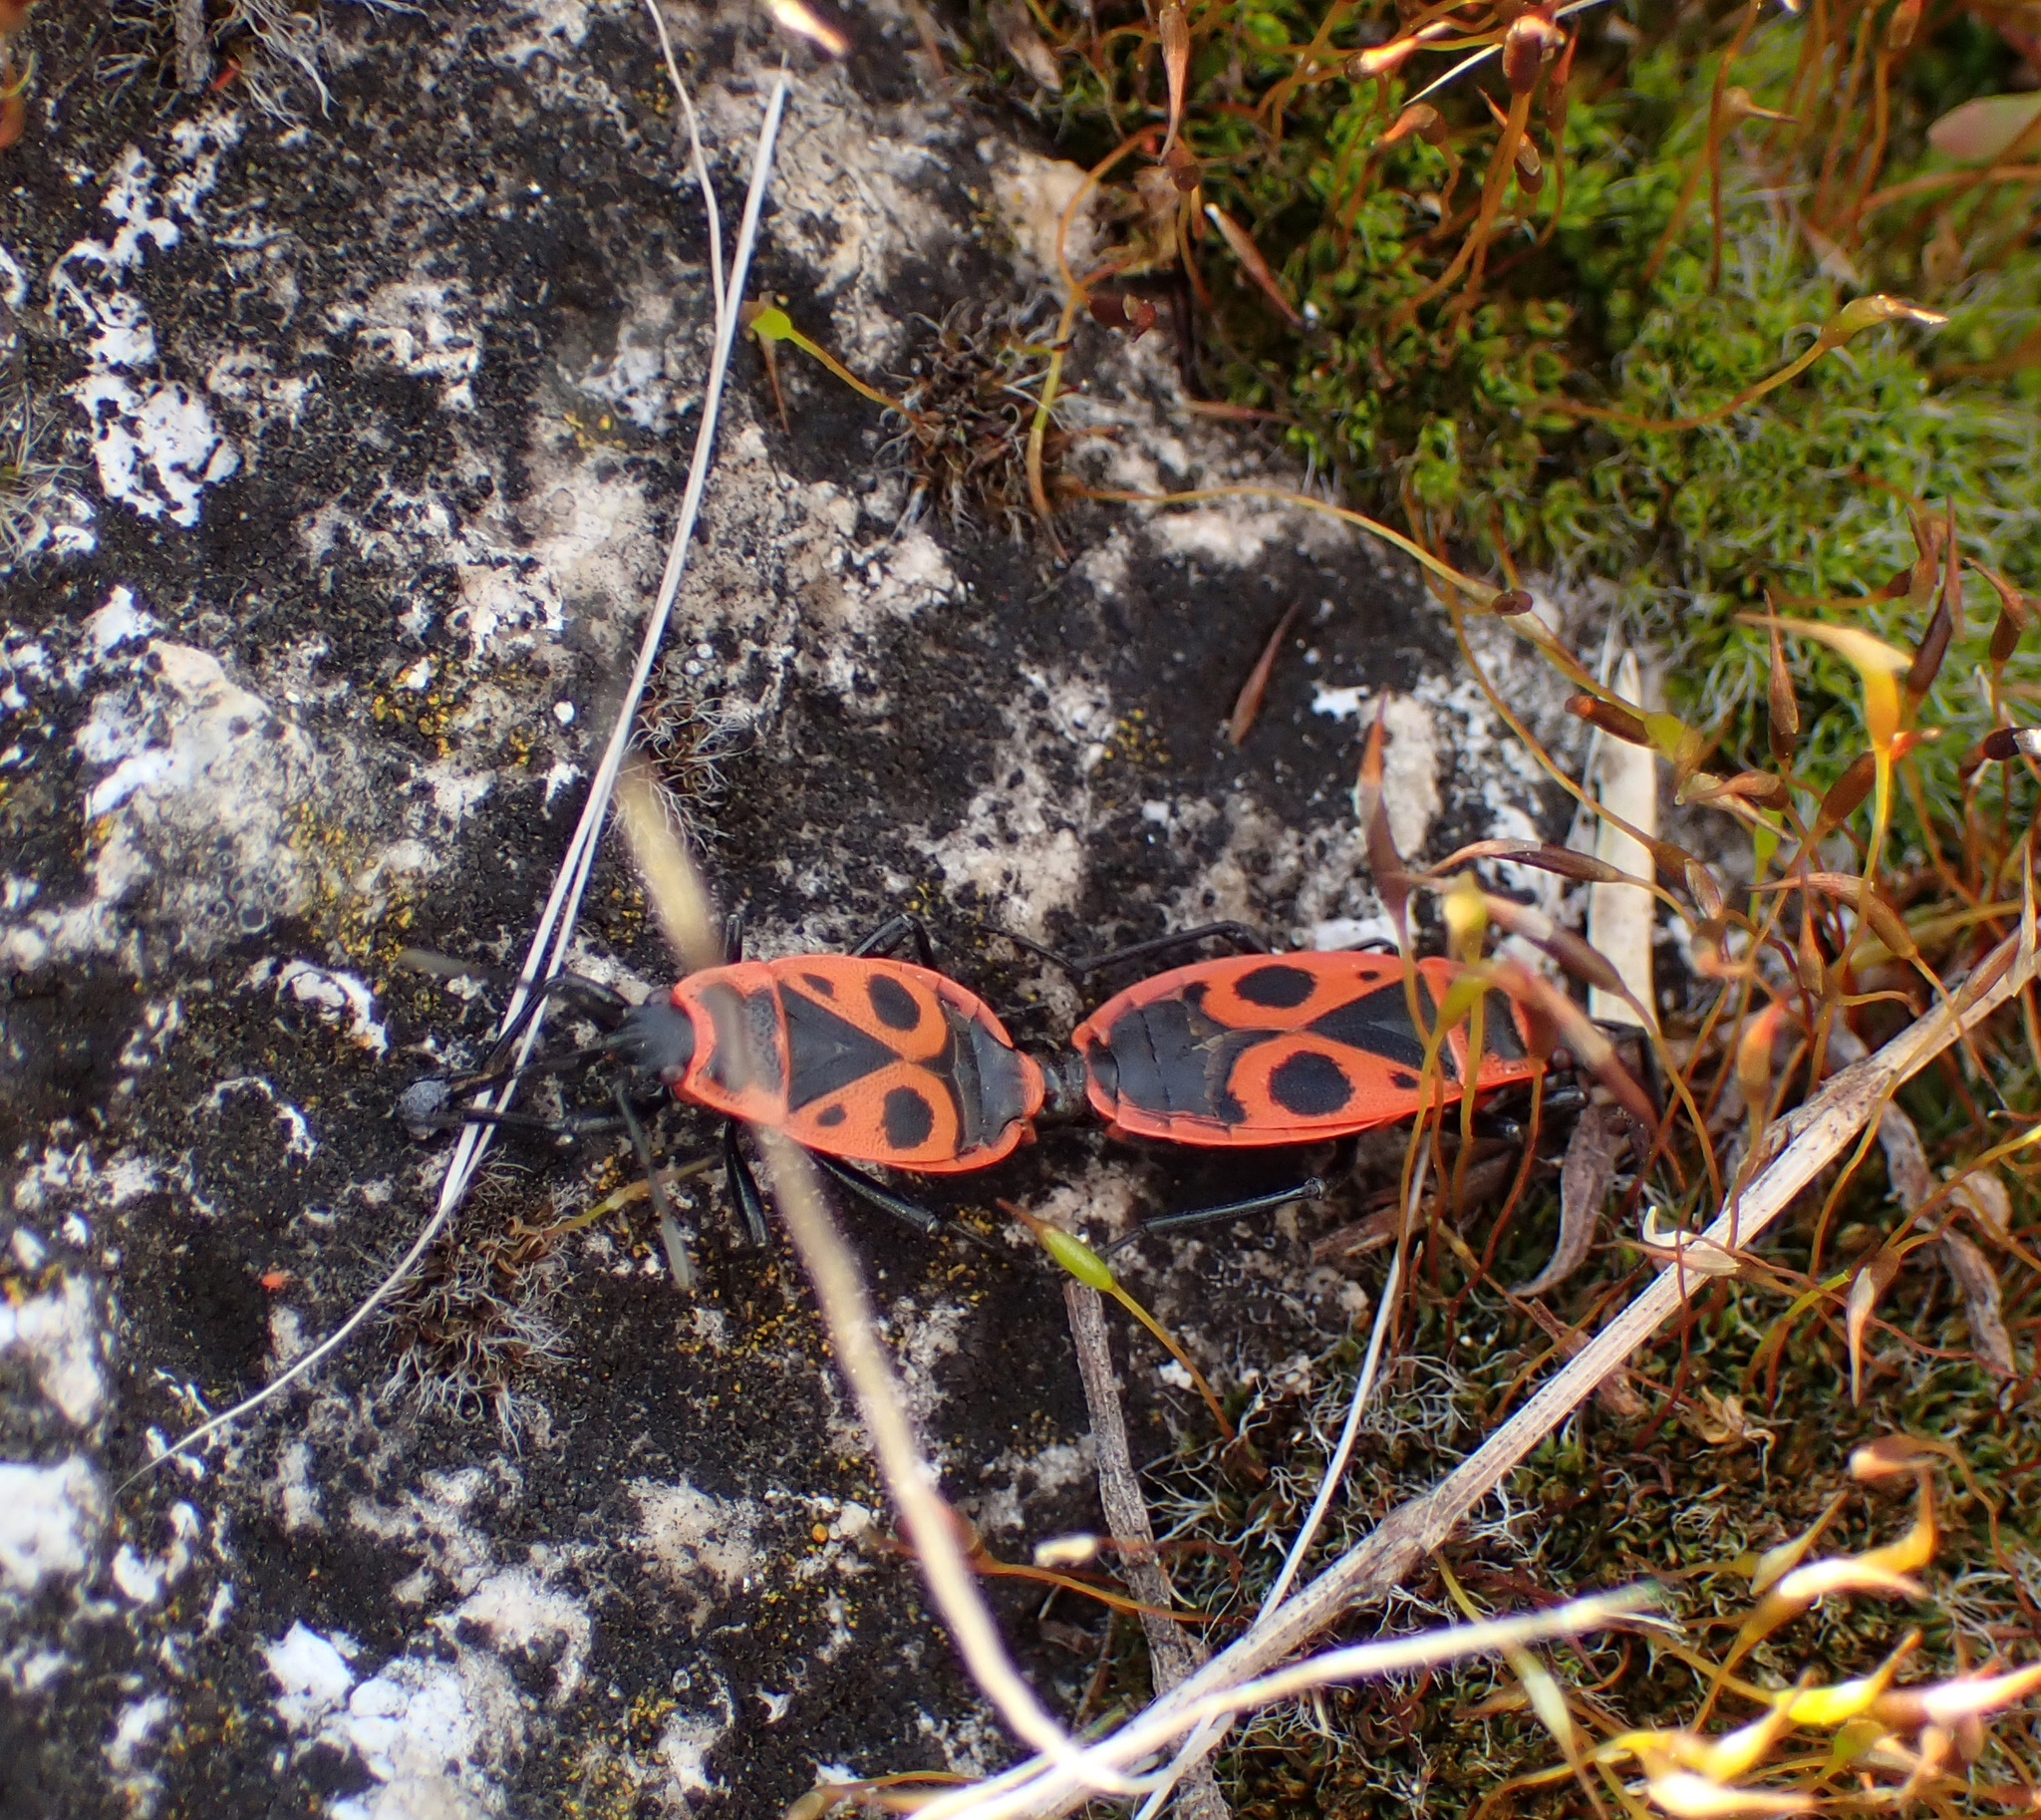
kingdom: Animalia
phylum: Arthropoda
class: Insecta
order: Hemiptera
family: Pyrrhocoridae
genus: Pyrrhocoris
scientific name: Pyrrhocoris apterus
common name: Firebug
